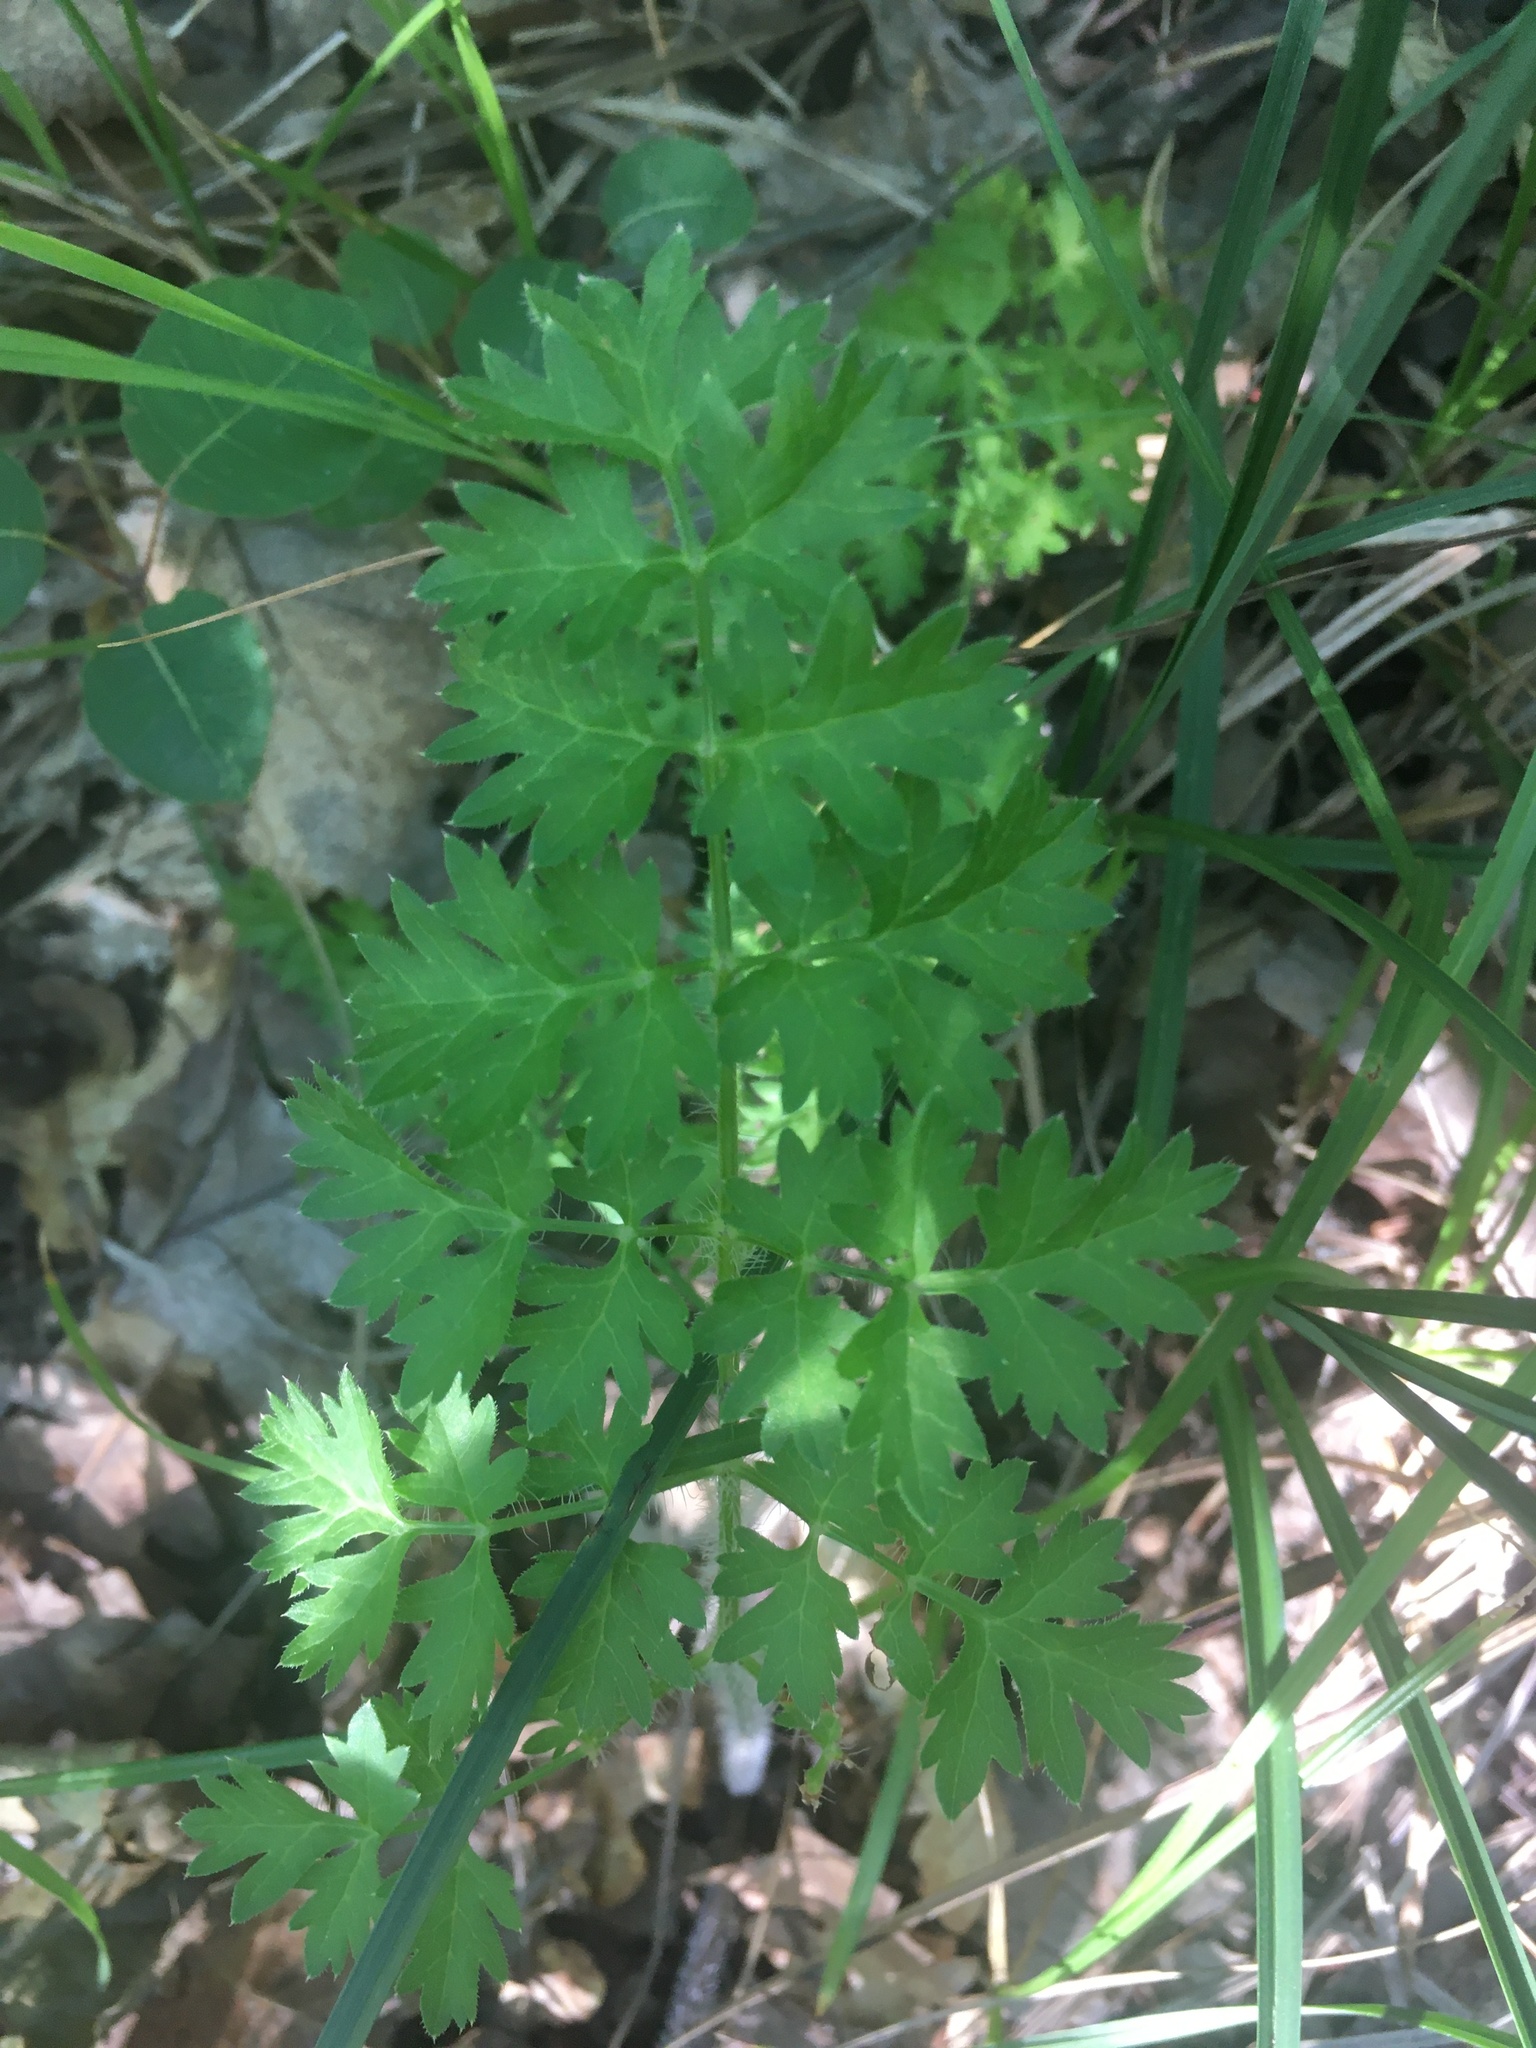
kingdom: Plantae
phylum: Tracheophyta
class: Magnoliopsida
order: Apiales
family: Apiaceae
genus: Silphiodaucus
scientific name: Silphiodaucus hispidus
